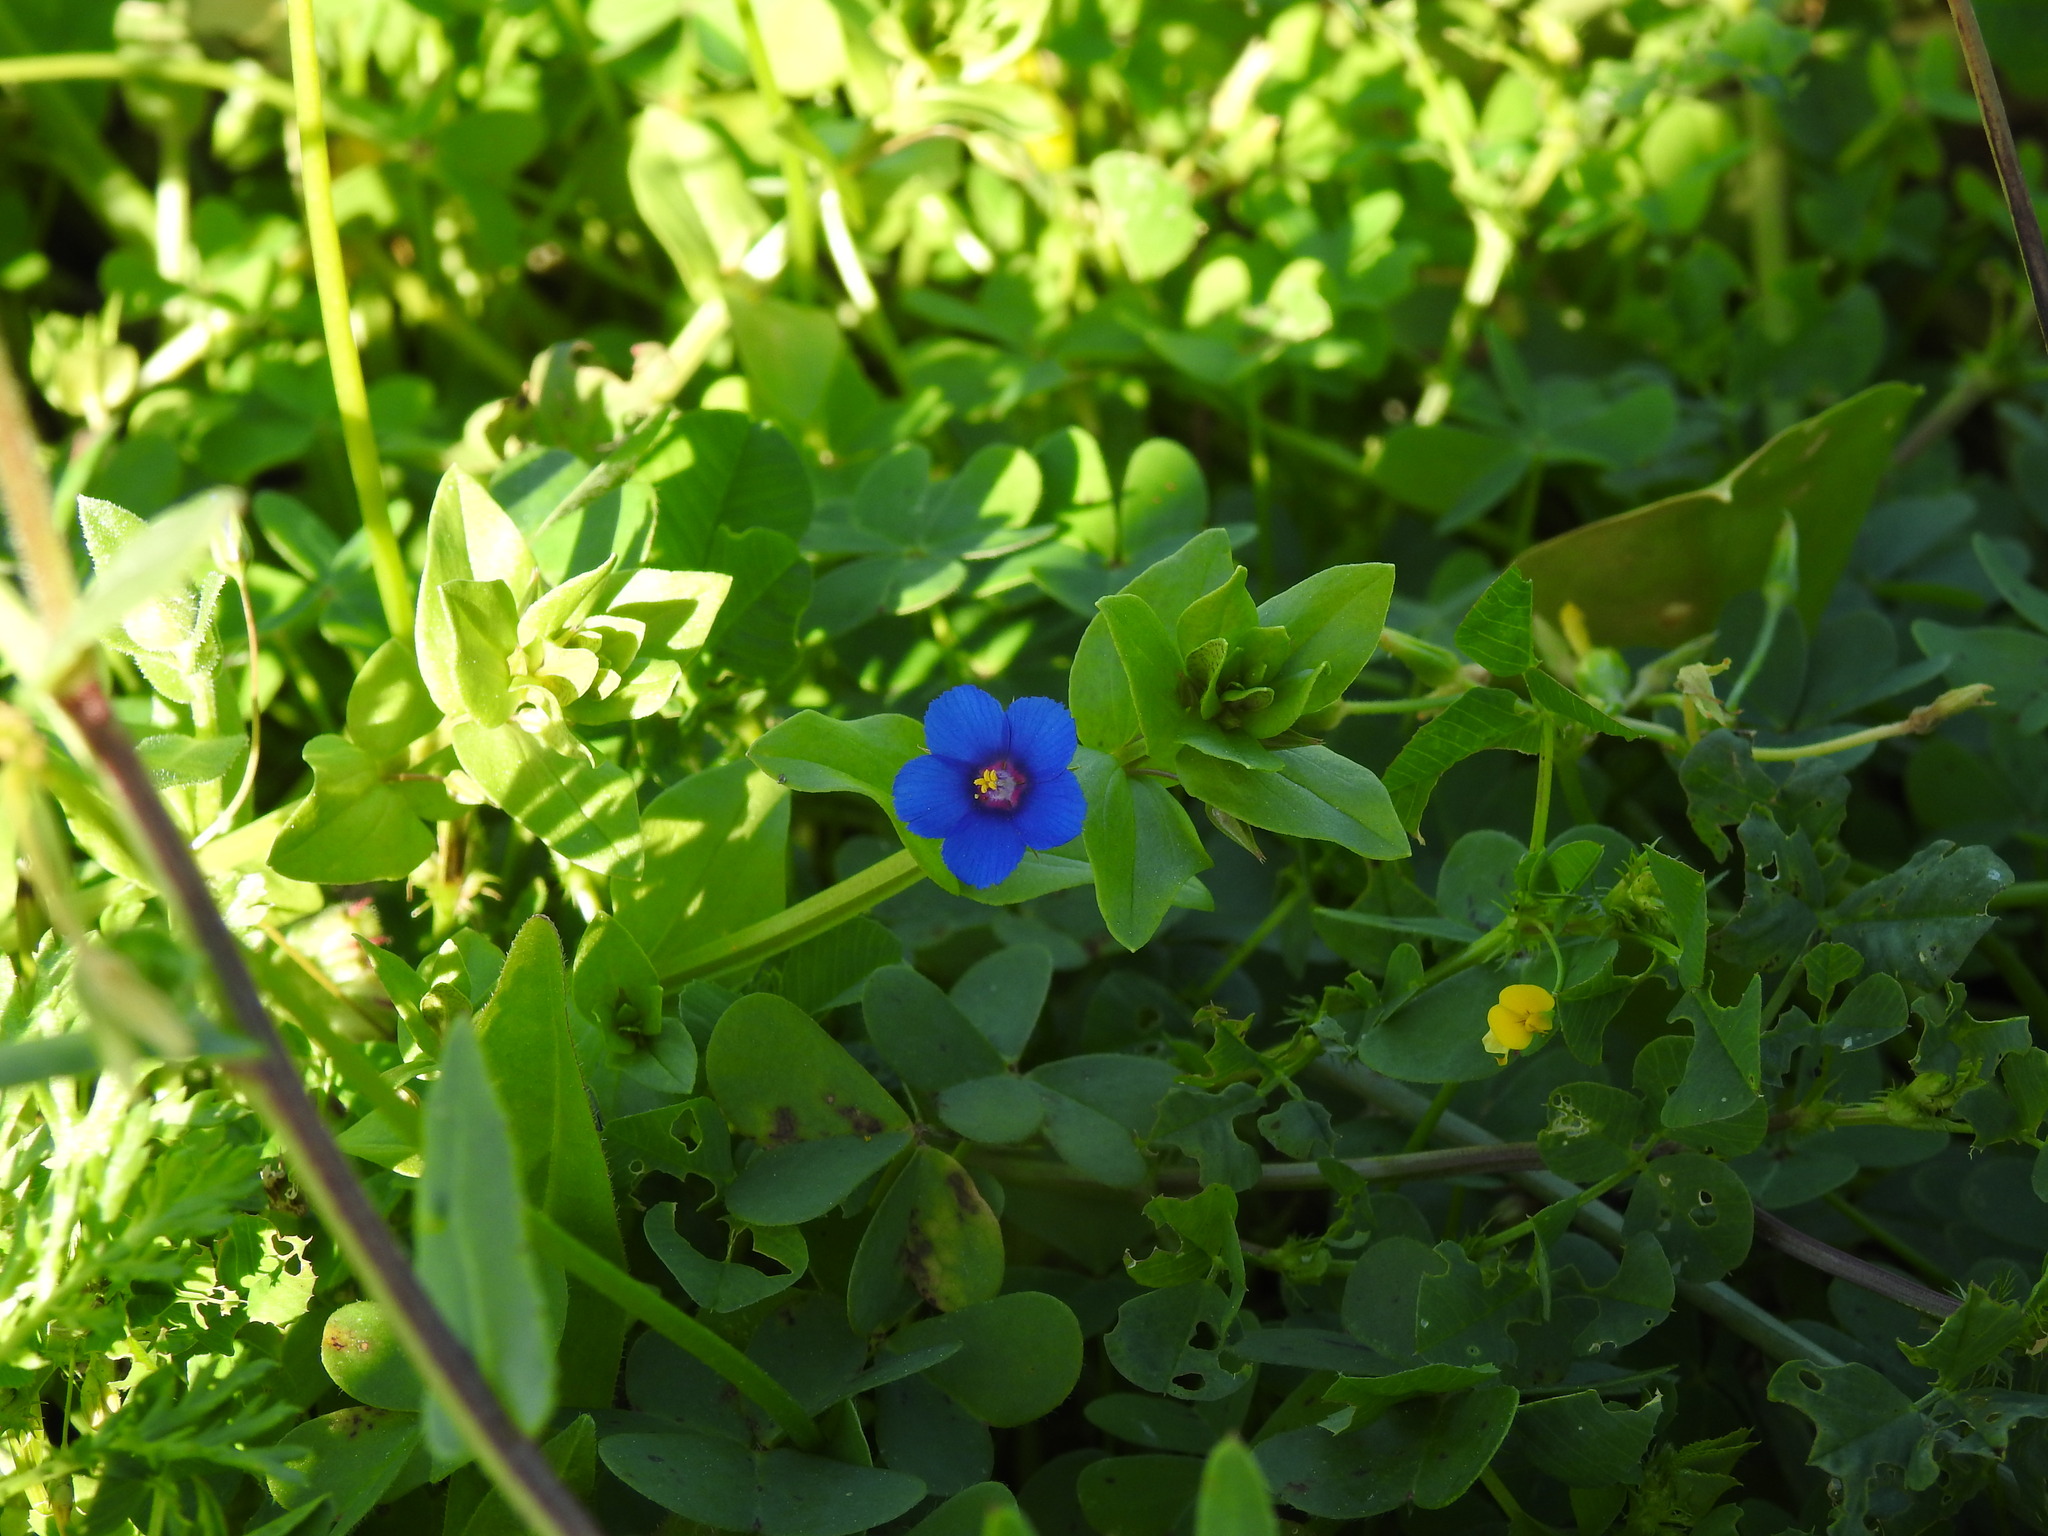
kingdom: Plantae
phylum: Tracheophyta
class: Magnoliopsida
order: Ericales
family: Primulaceae
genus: Lysimachia
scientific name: Lysimachia loeflingii
